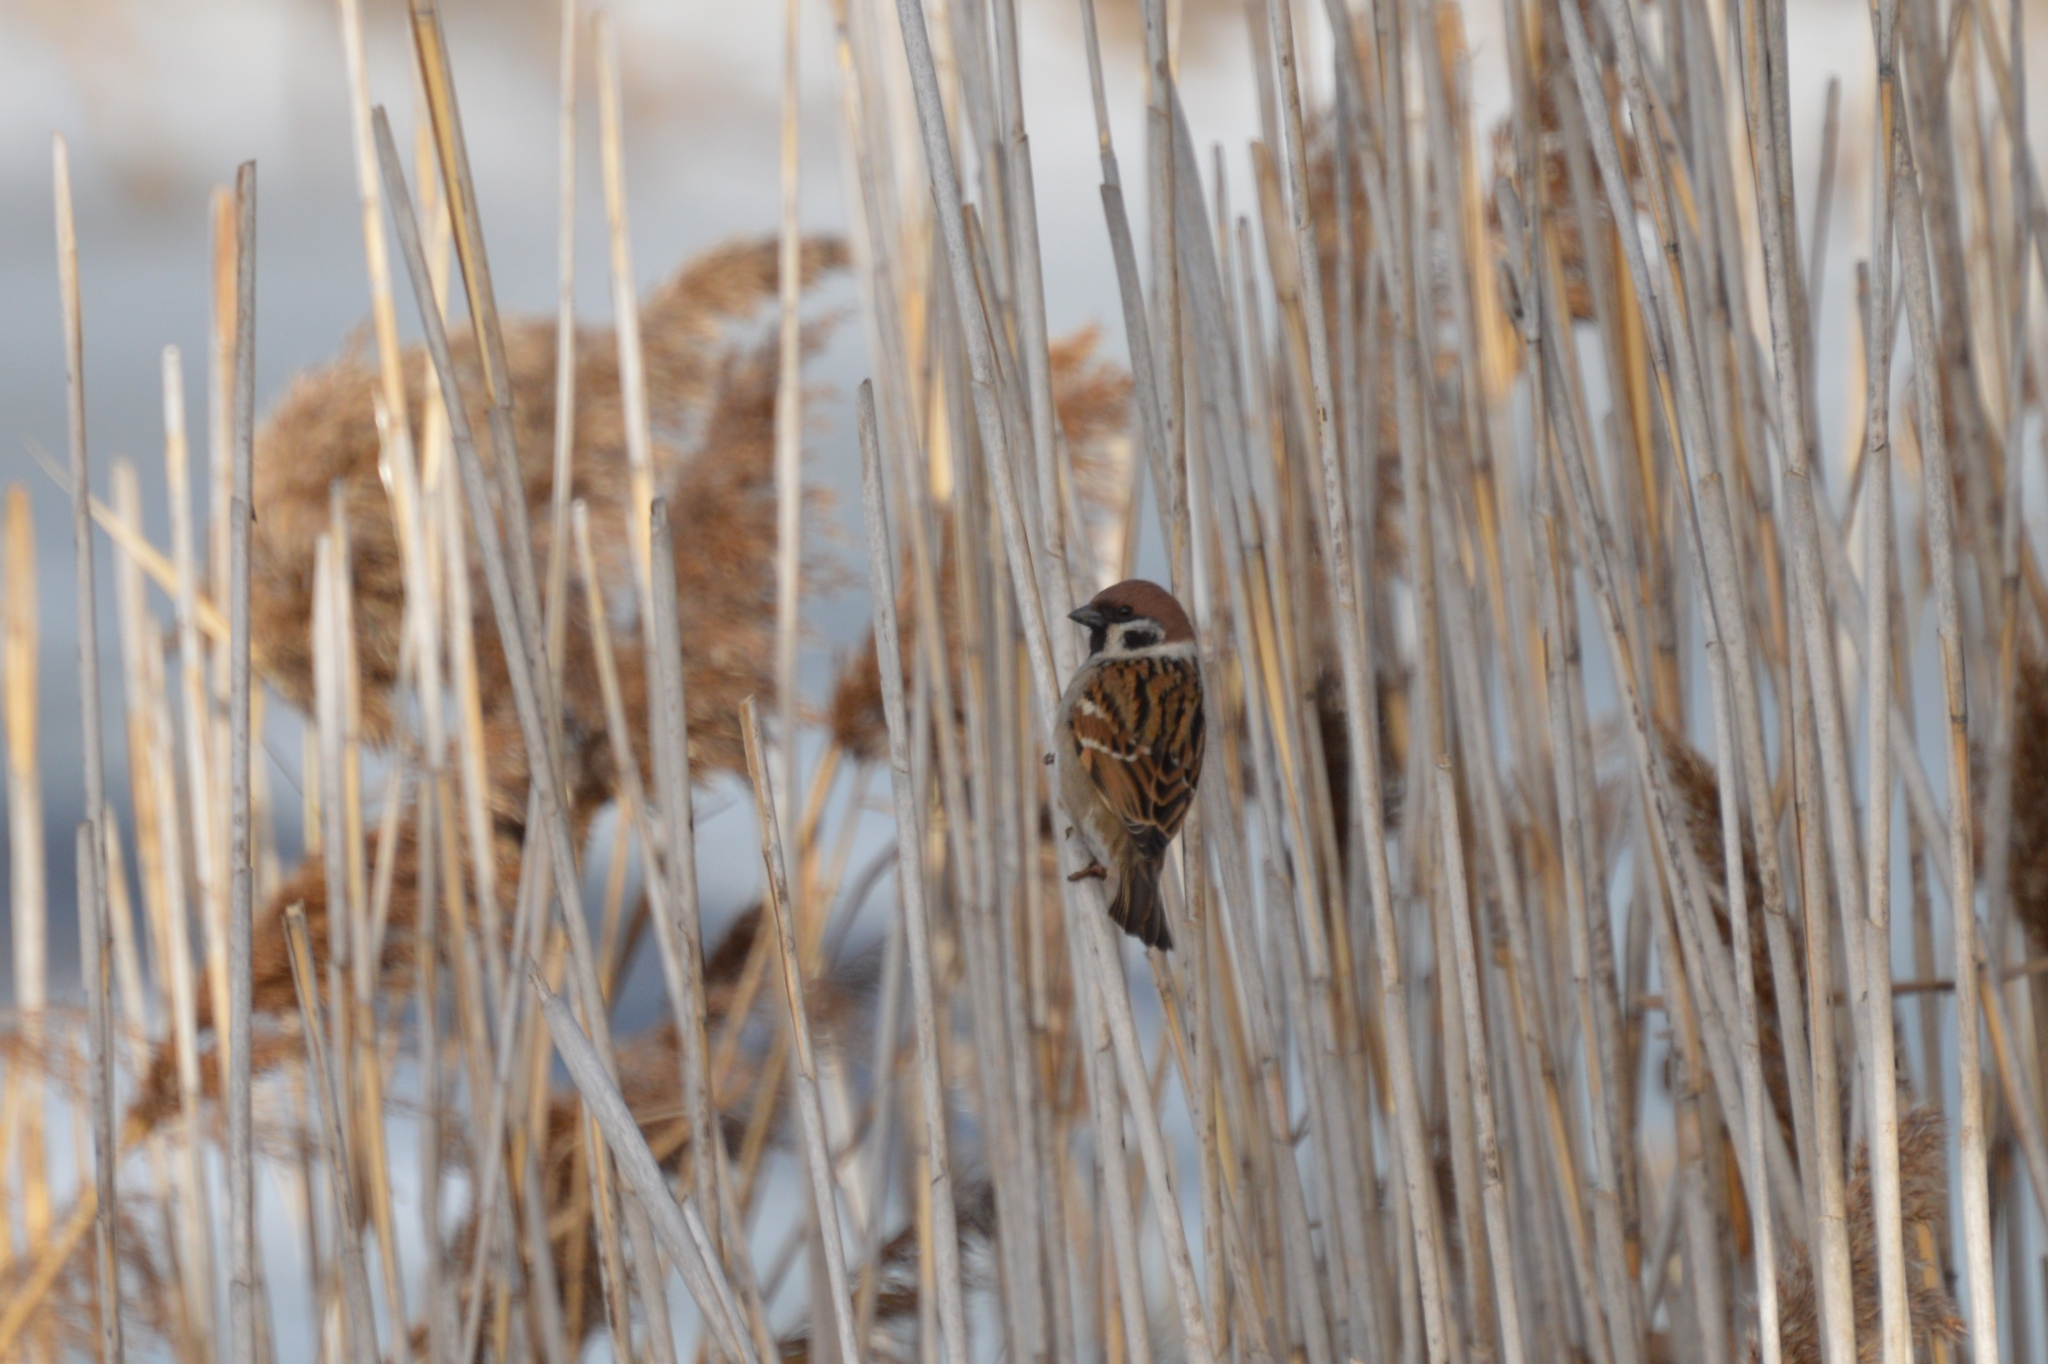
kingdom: Animalia
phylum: Chordata
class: Aves
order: Passeriformes
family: Passeridae
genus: Passer
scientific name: Passer montanus
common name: Eurasian tree sparrow
